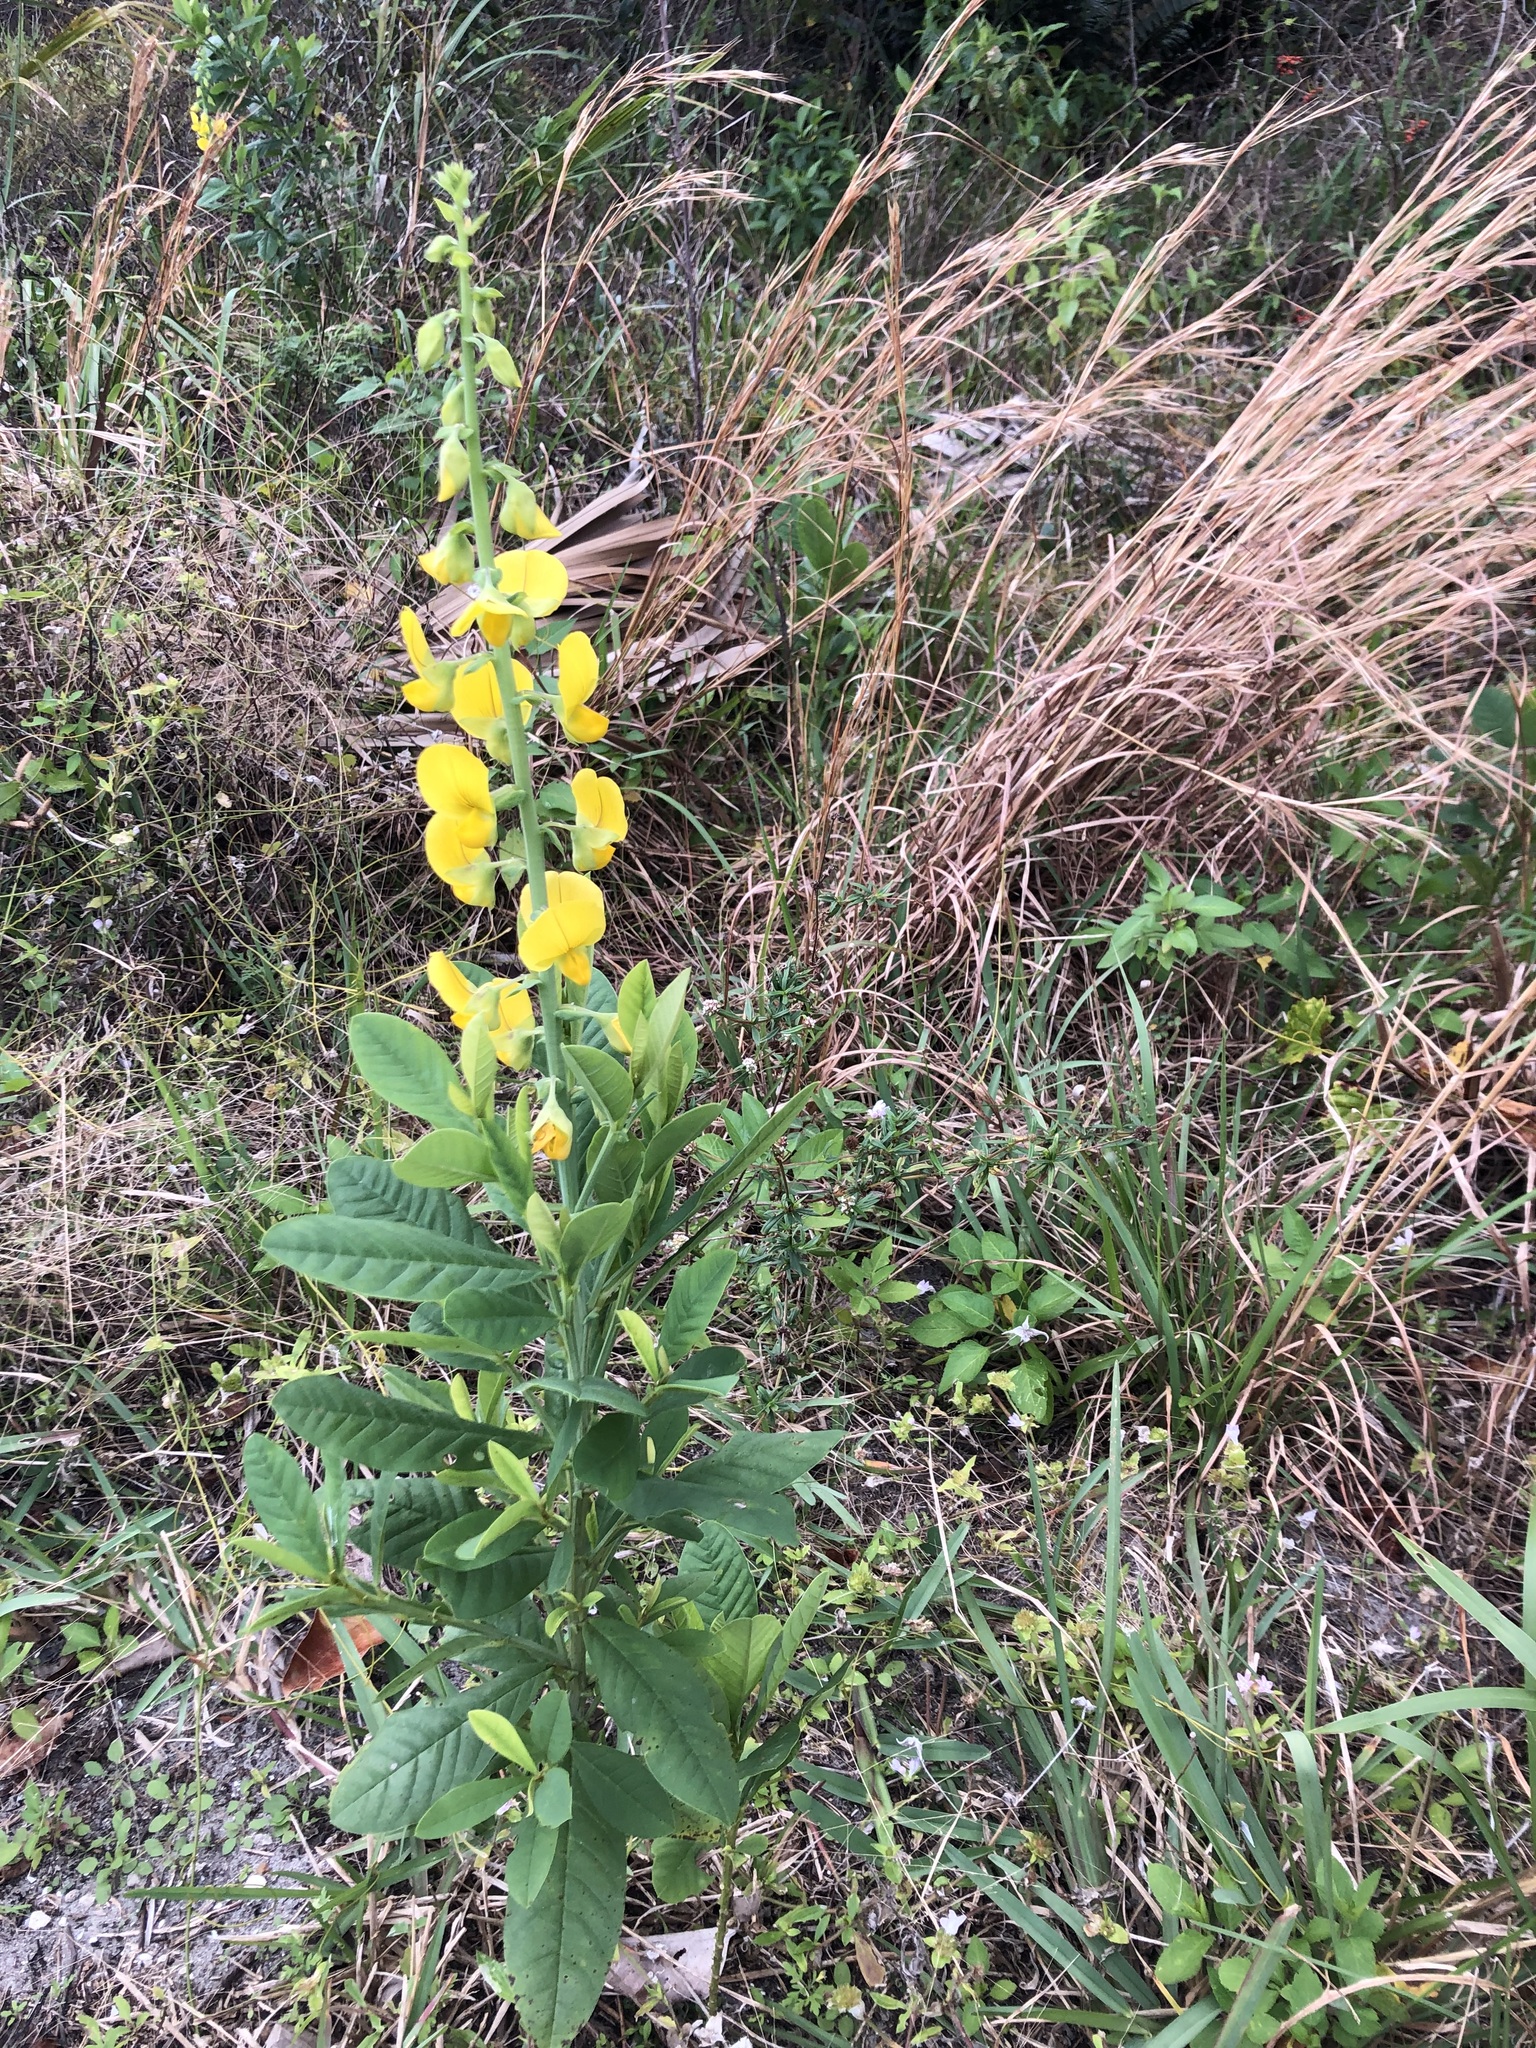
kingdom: Plantae
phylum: Tracheophyta
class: Magnoliopsida
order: Fabales
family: Fabaceae
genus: Crotalaria
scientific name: Crotalaria spectabilis
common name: Showy rattlebox
